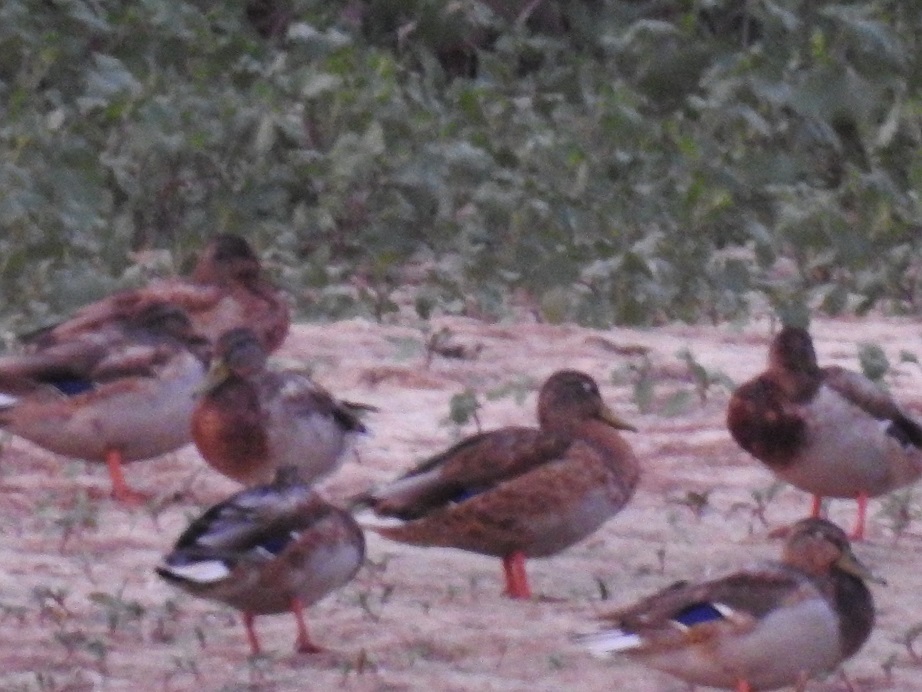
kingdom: Animalia
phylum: Chordata
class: Aves
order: Anseriformes
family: Anatidae
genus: Anas
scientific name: Anas platyrhynchos
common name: Mallard
